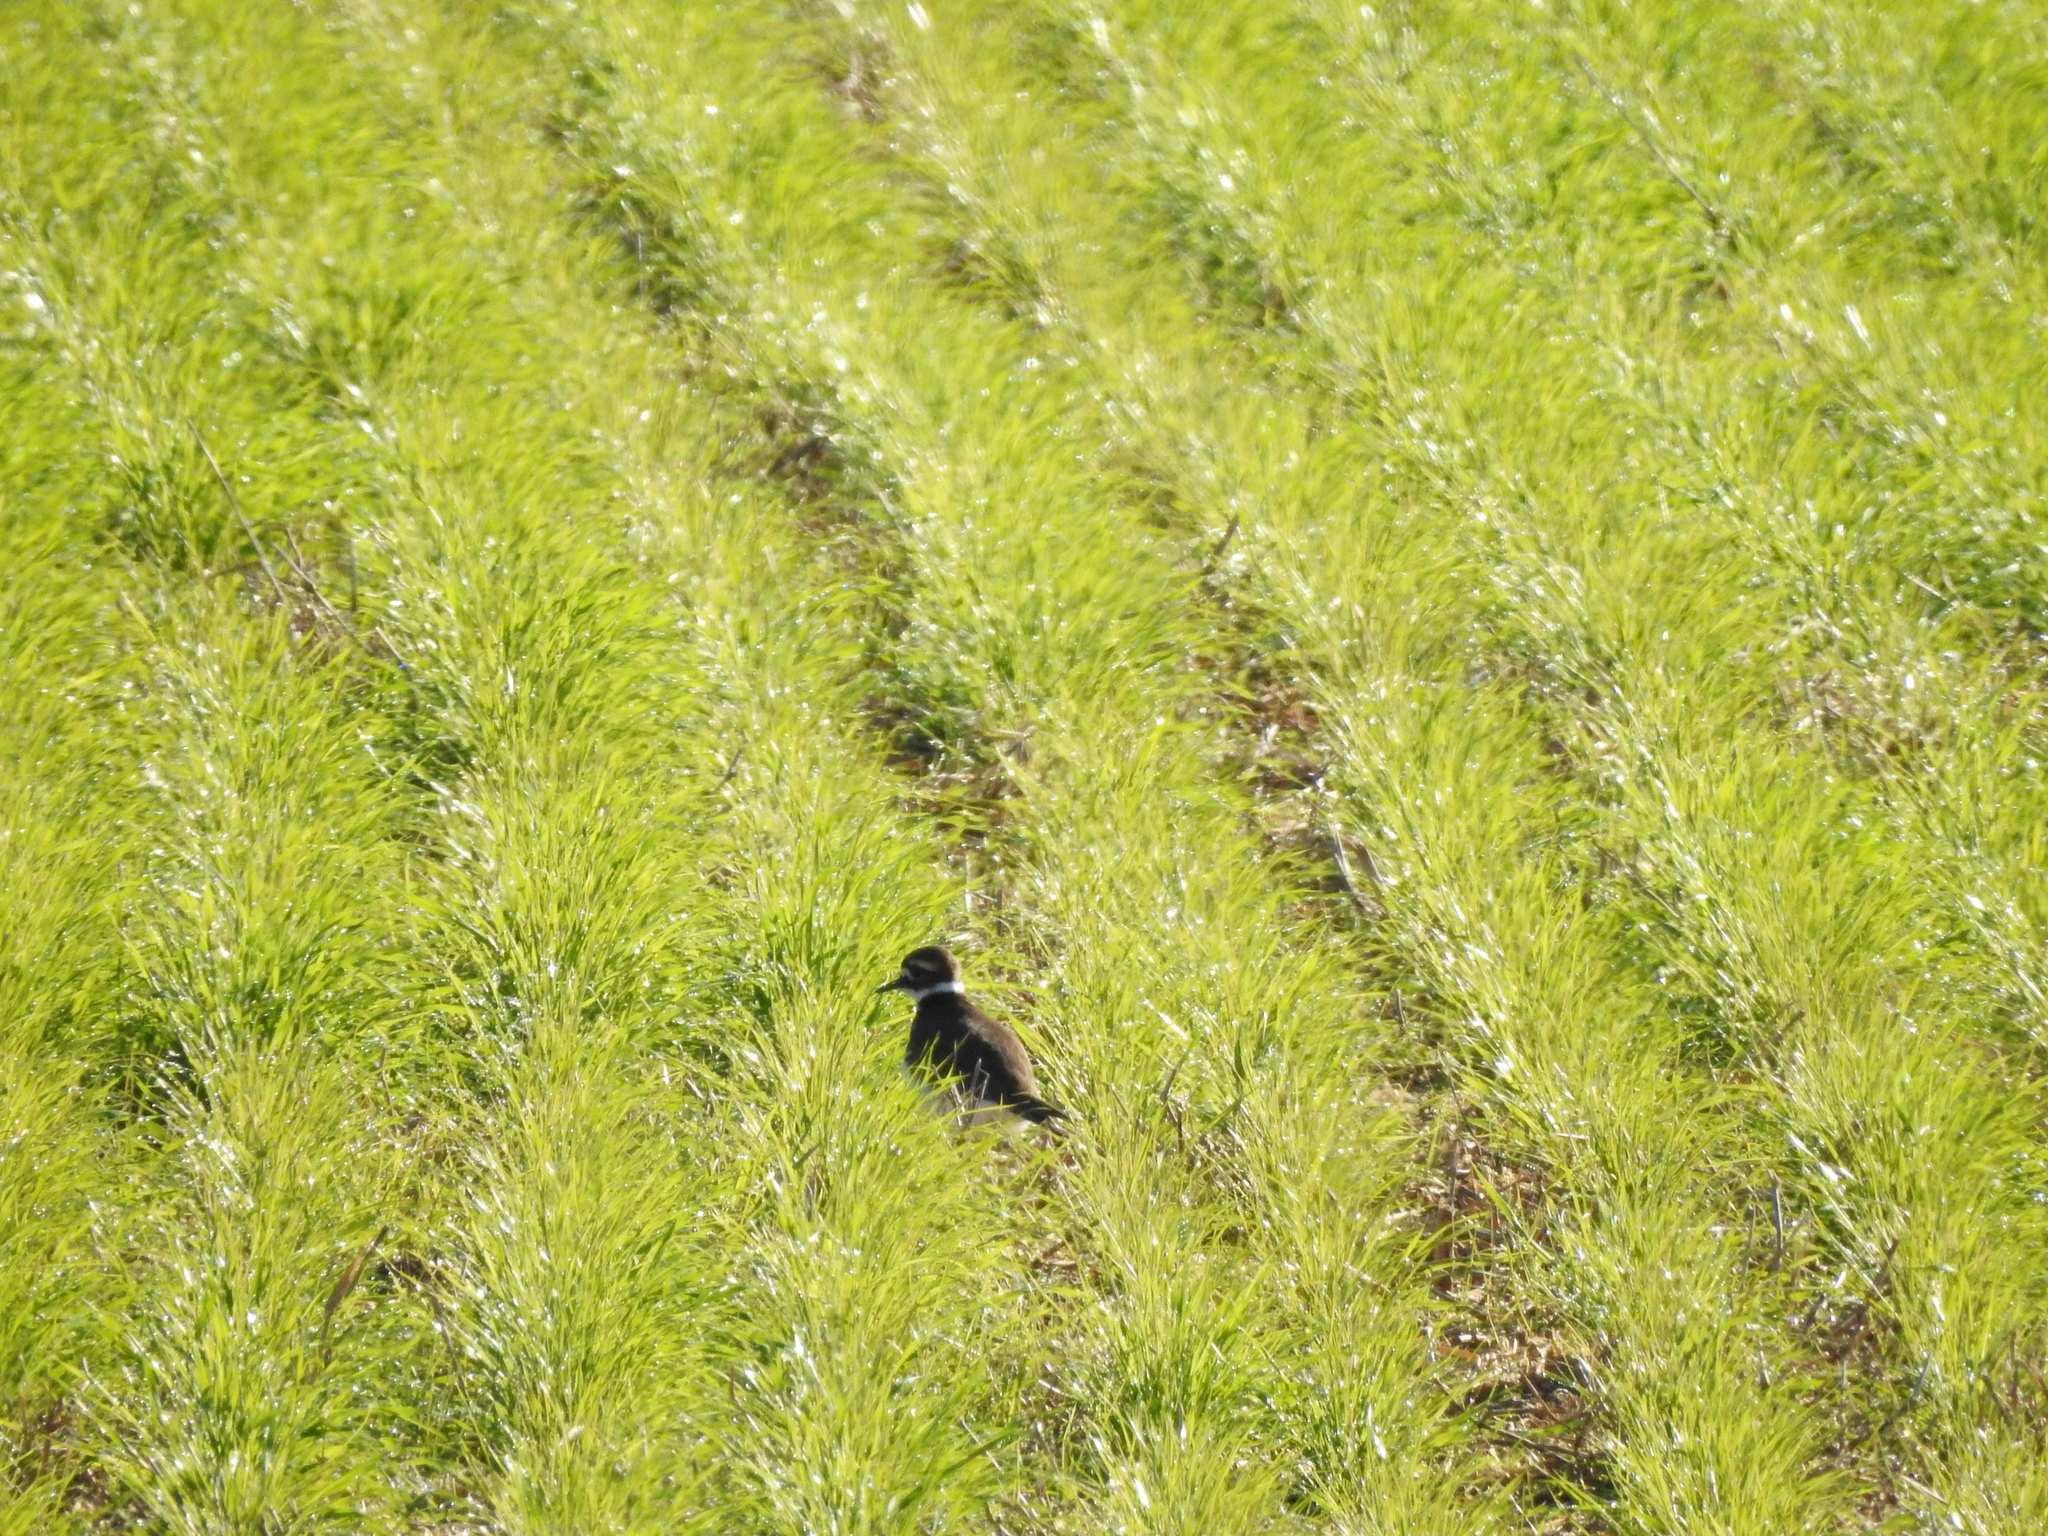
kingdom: Animalia
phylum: Chordata
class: Aves
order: Charadriiformes
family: Charadriidae
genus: Charadrius
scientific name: Charadrius vociferus
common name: Killdeer
